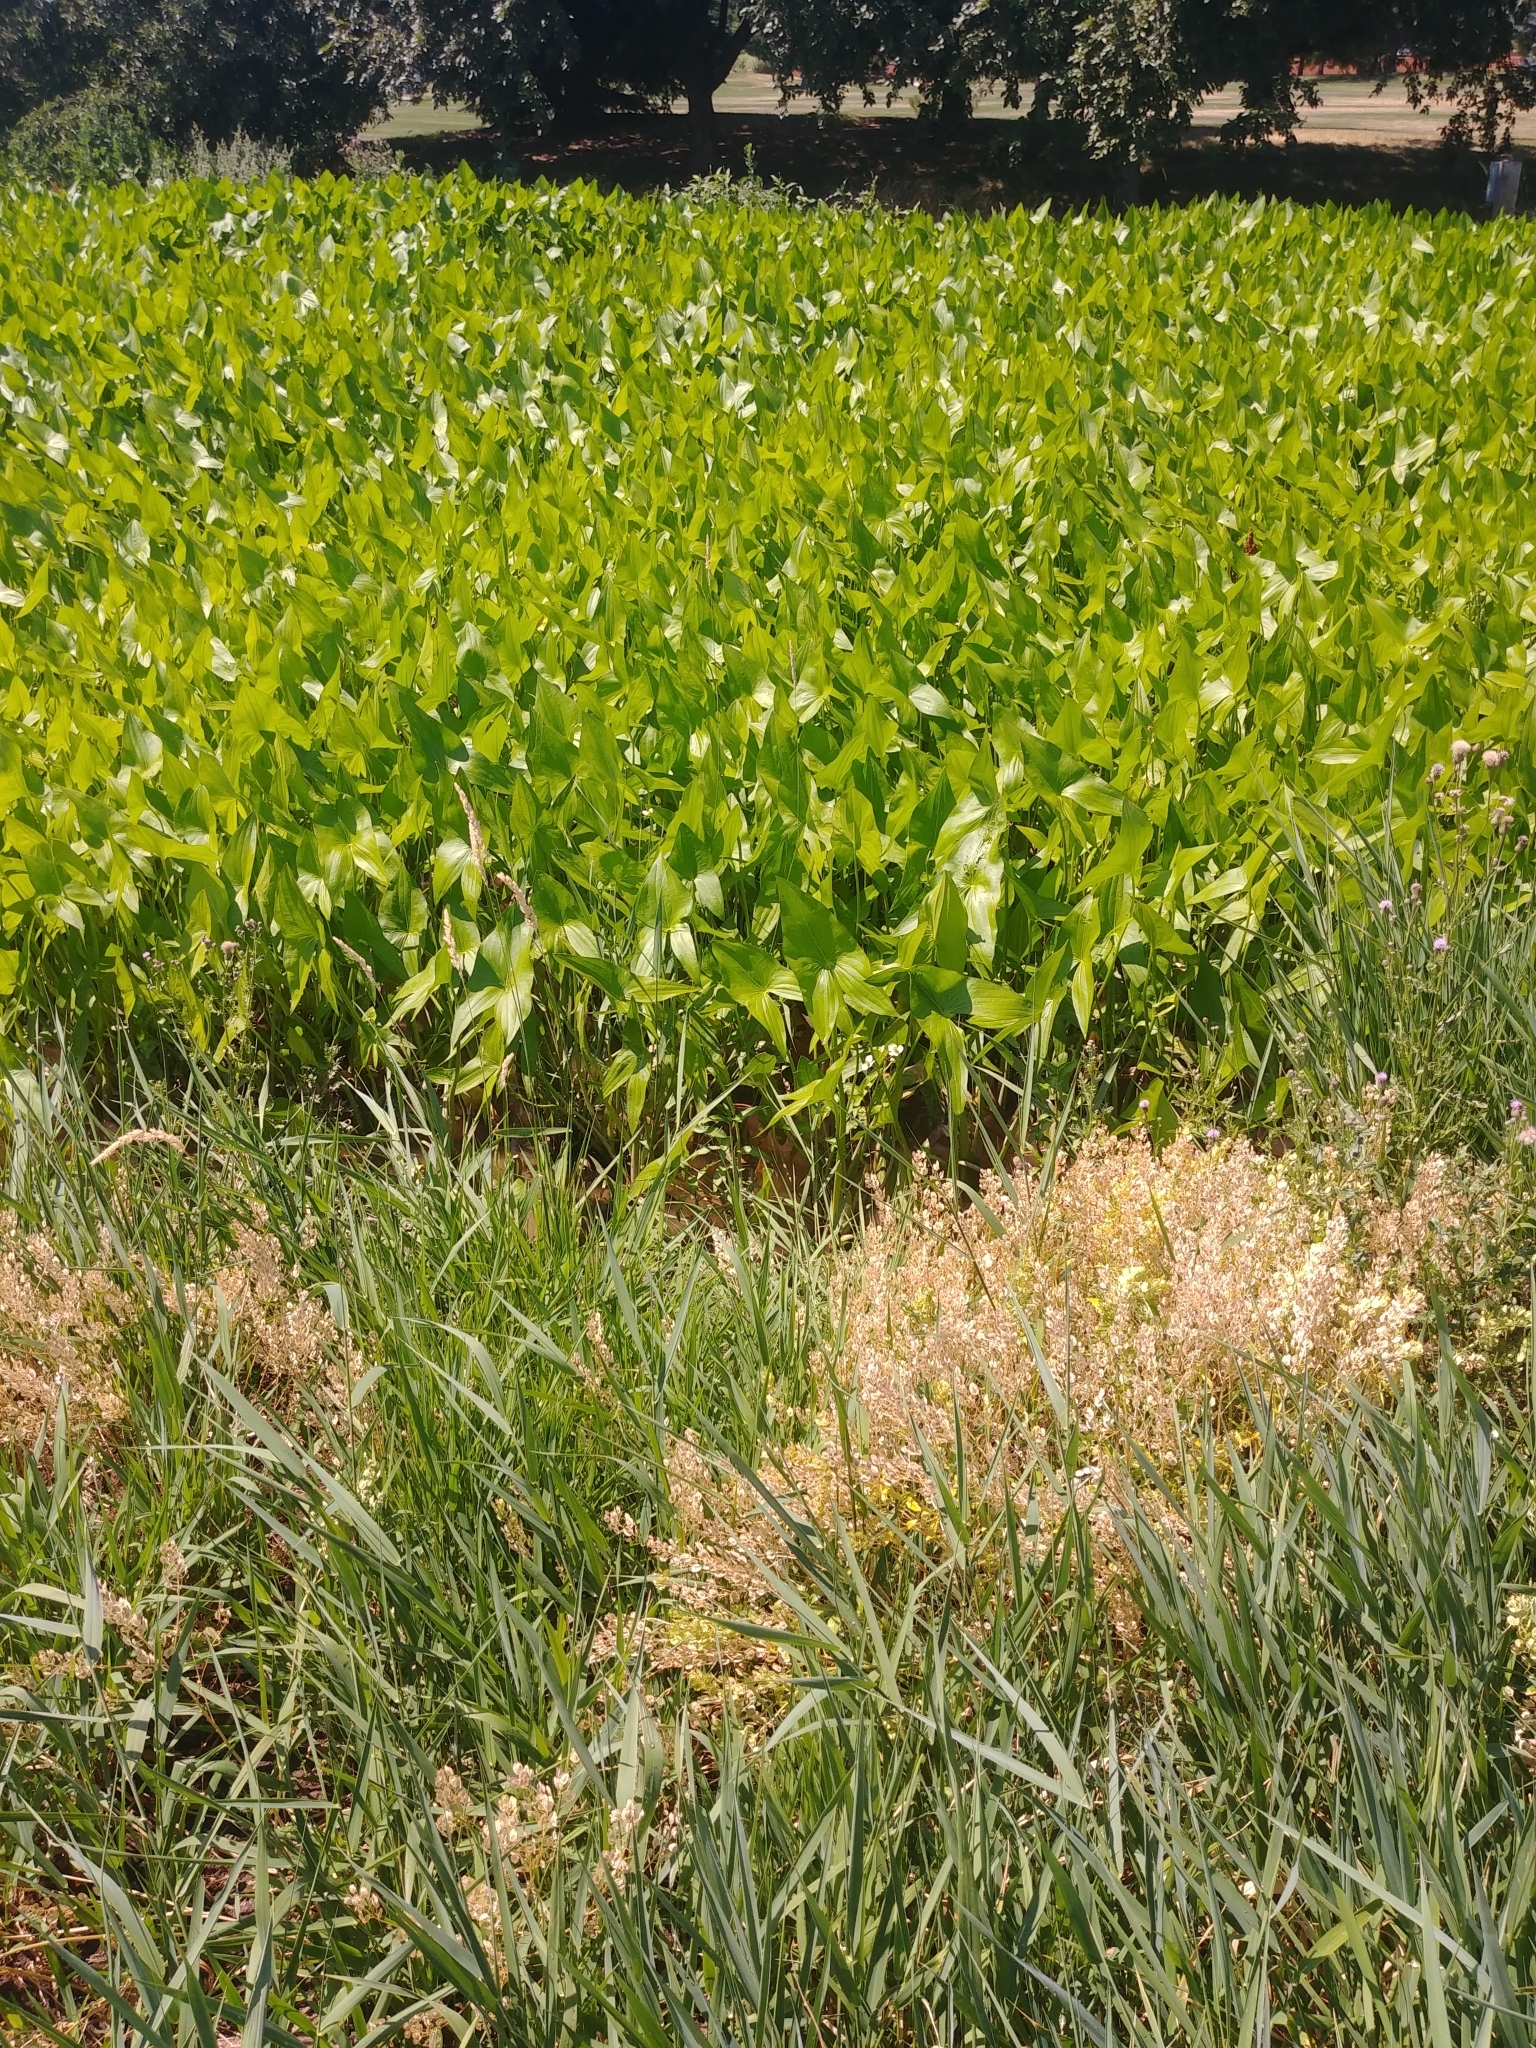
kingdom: Plantae
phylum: Tracheophyta
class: Liliopsida
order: Alismatales
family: Alismataceae
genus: Sagittaria
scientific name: Sagittaria latifolia
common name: Duck-potato
